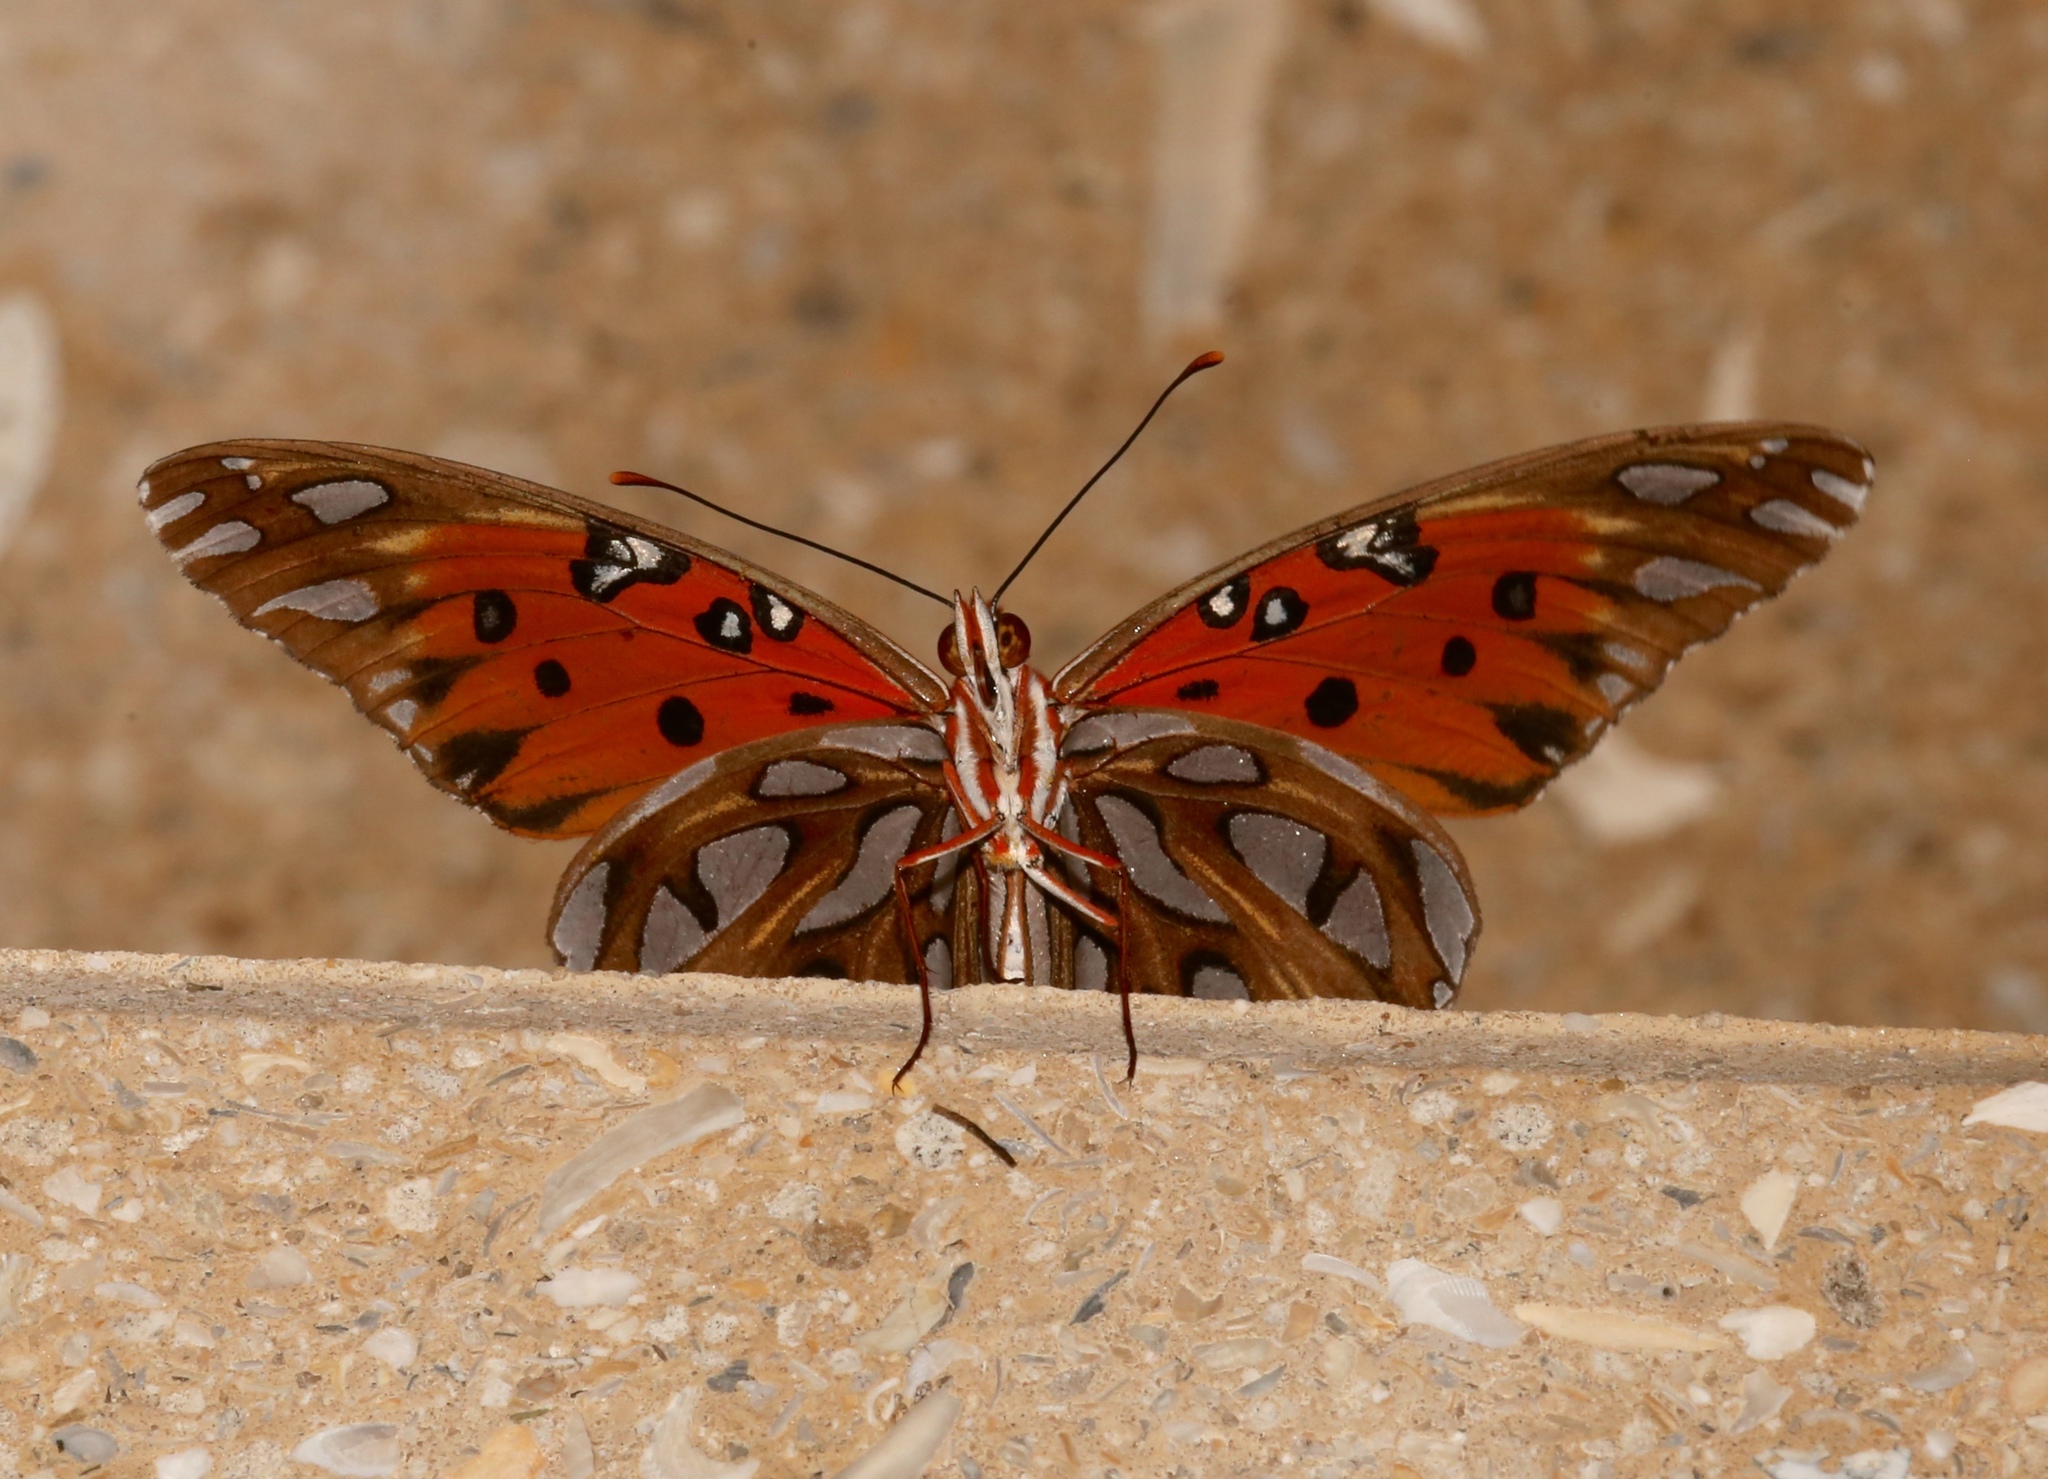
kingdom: Animalia
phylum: Arthropoda
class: Insecta
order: Lepidoptera
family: Nymphalidae
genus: Dione
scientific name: Dione vanillae
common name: Gulf fritillary
